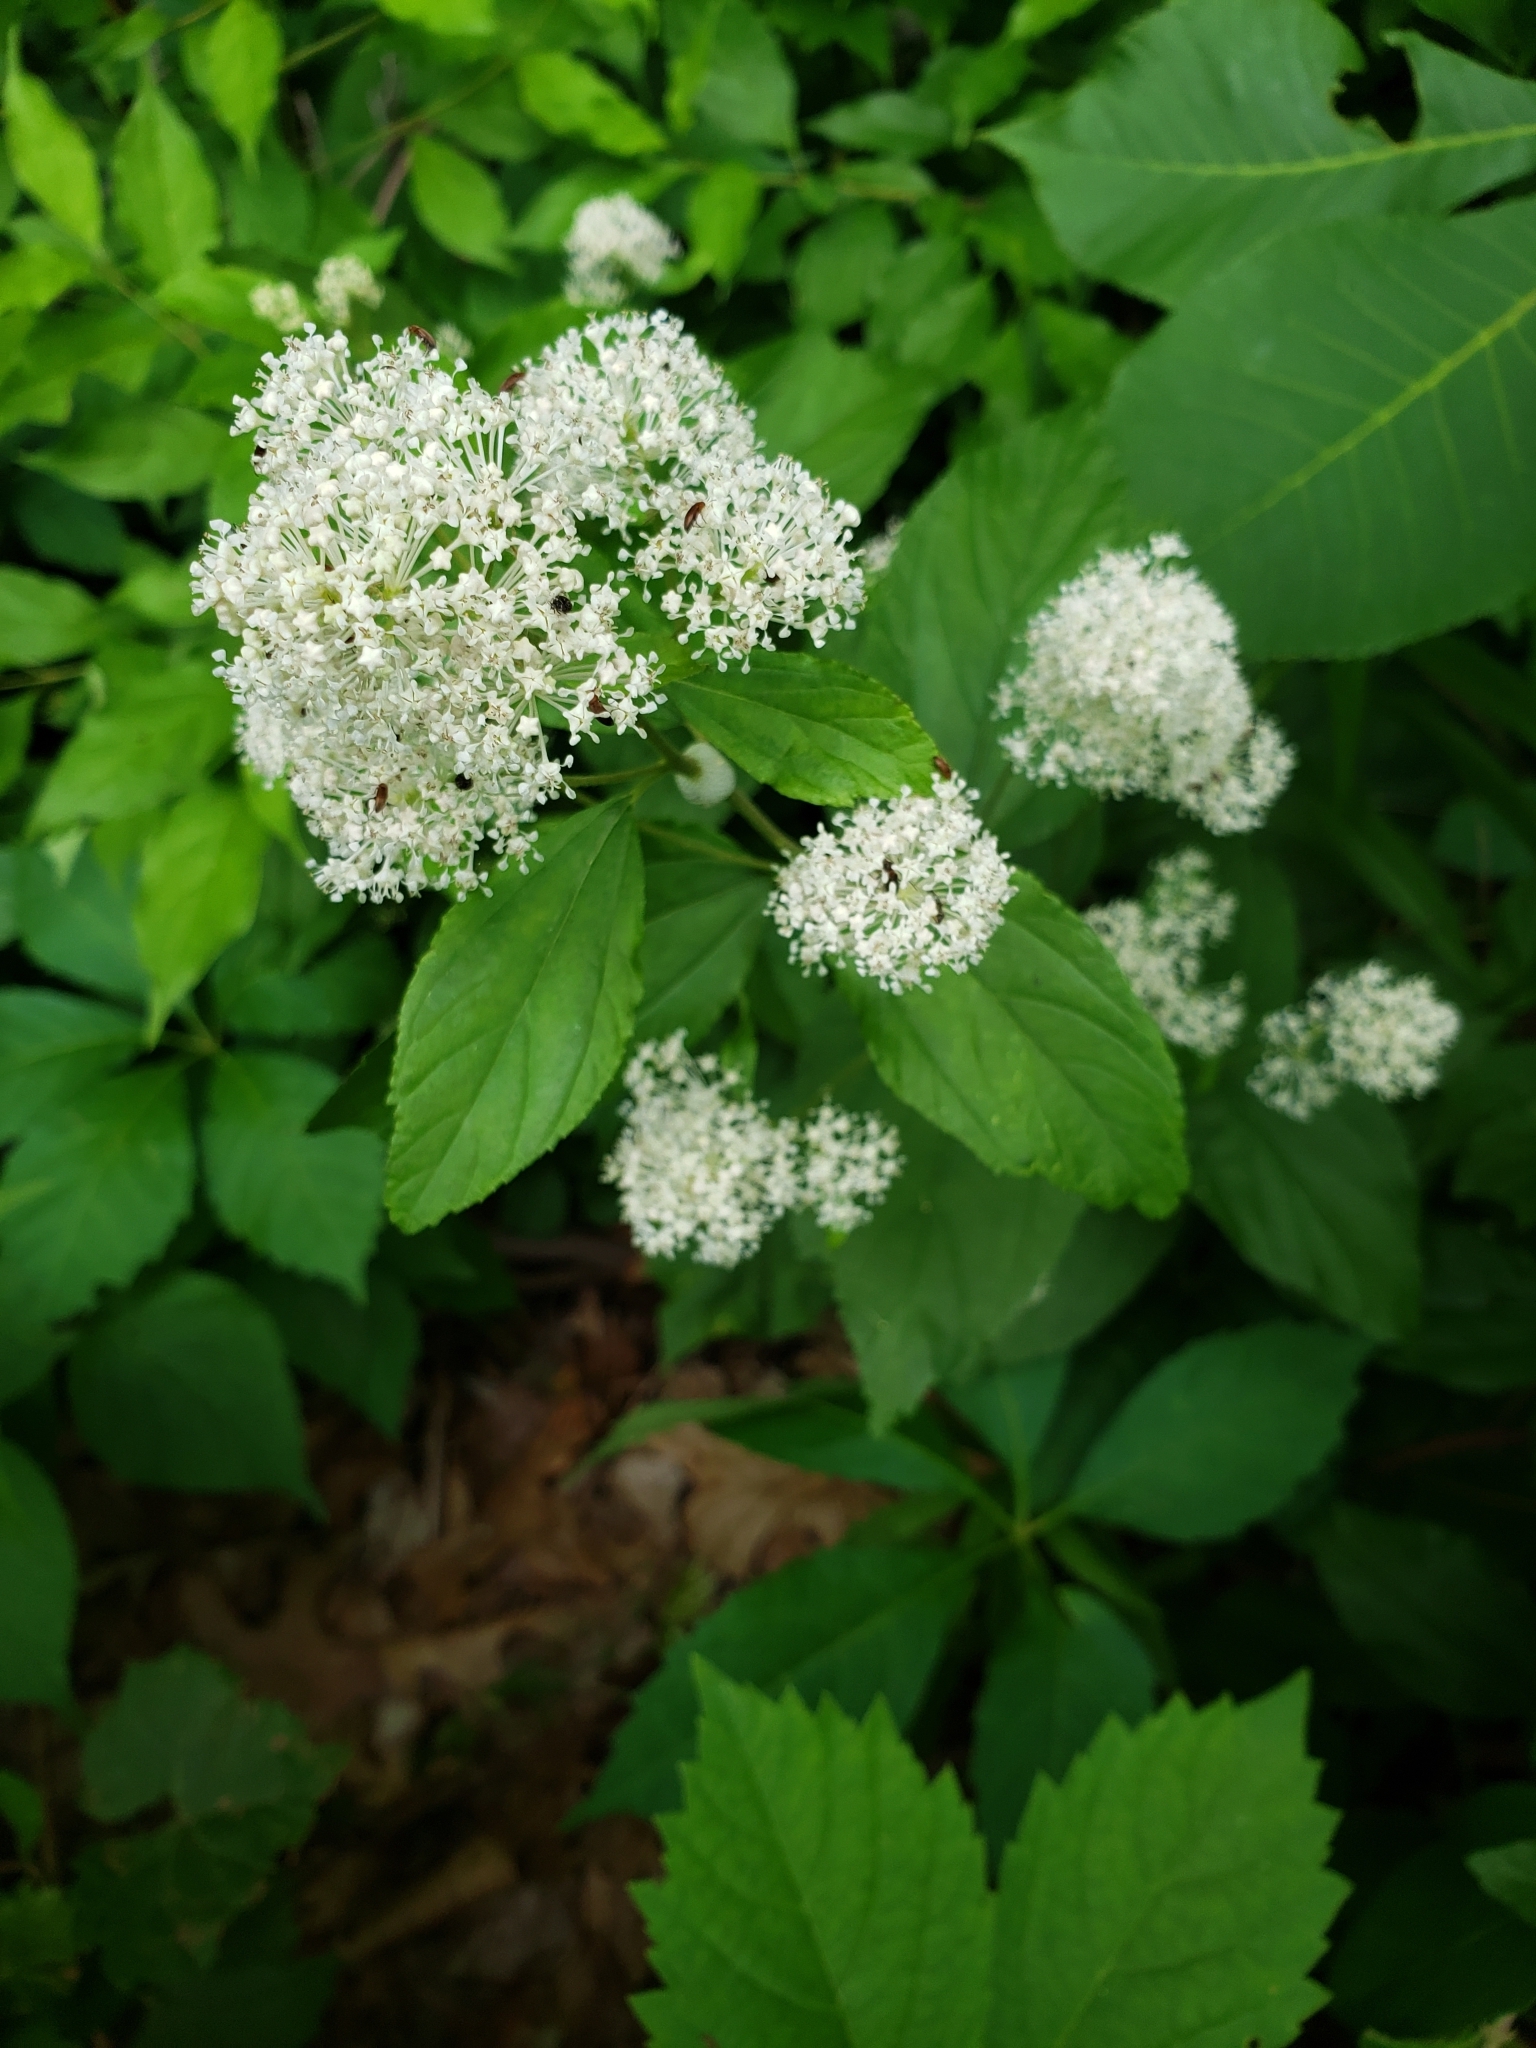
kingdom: Plantae
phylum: Tracheophyta
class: Magnoliopsida
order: Rosales
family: Rhamnaceae
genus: Ceanothus
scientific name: Ceanothus americanus
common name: Redroot
